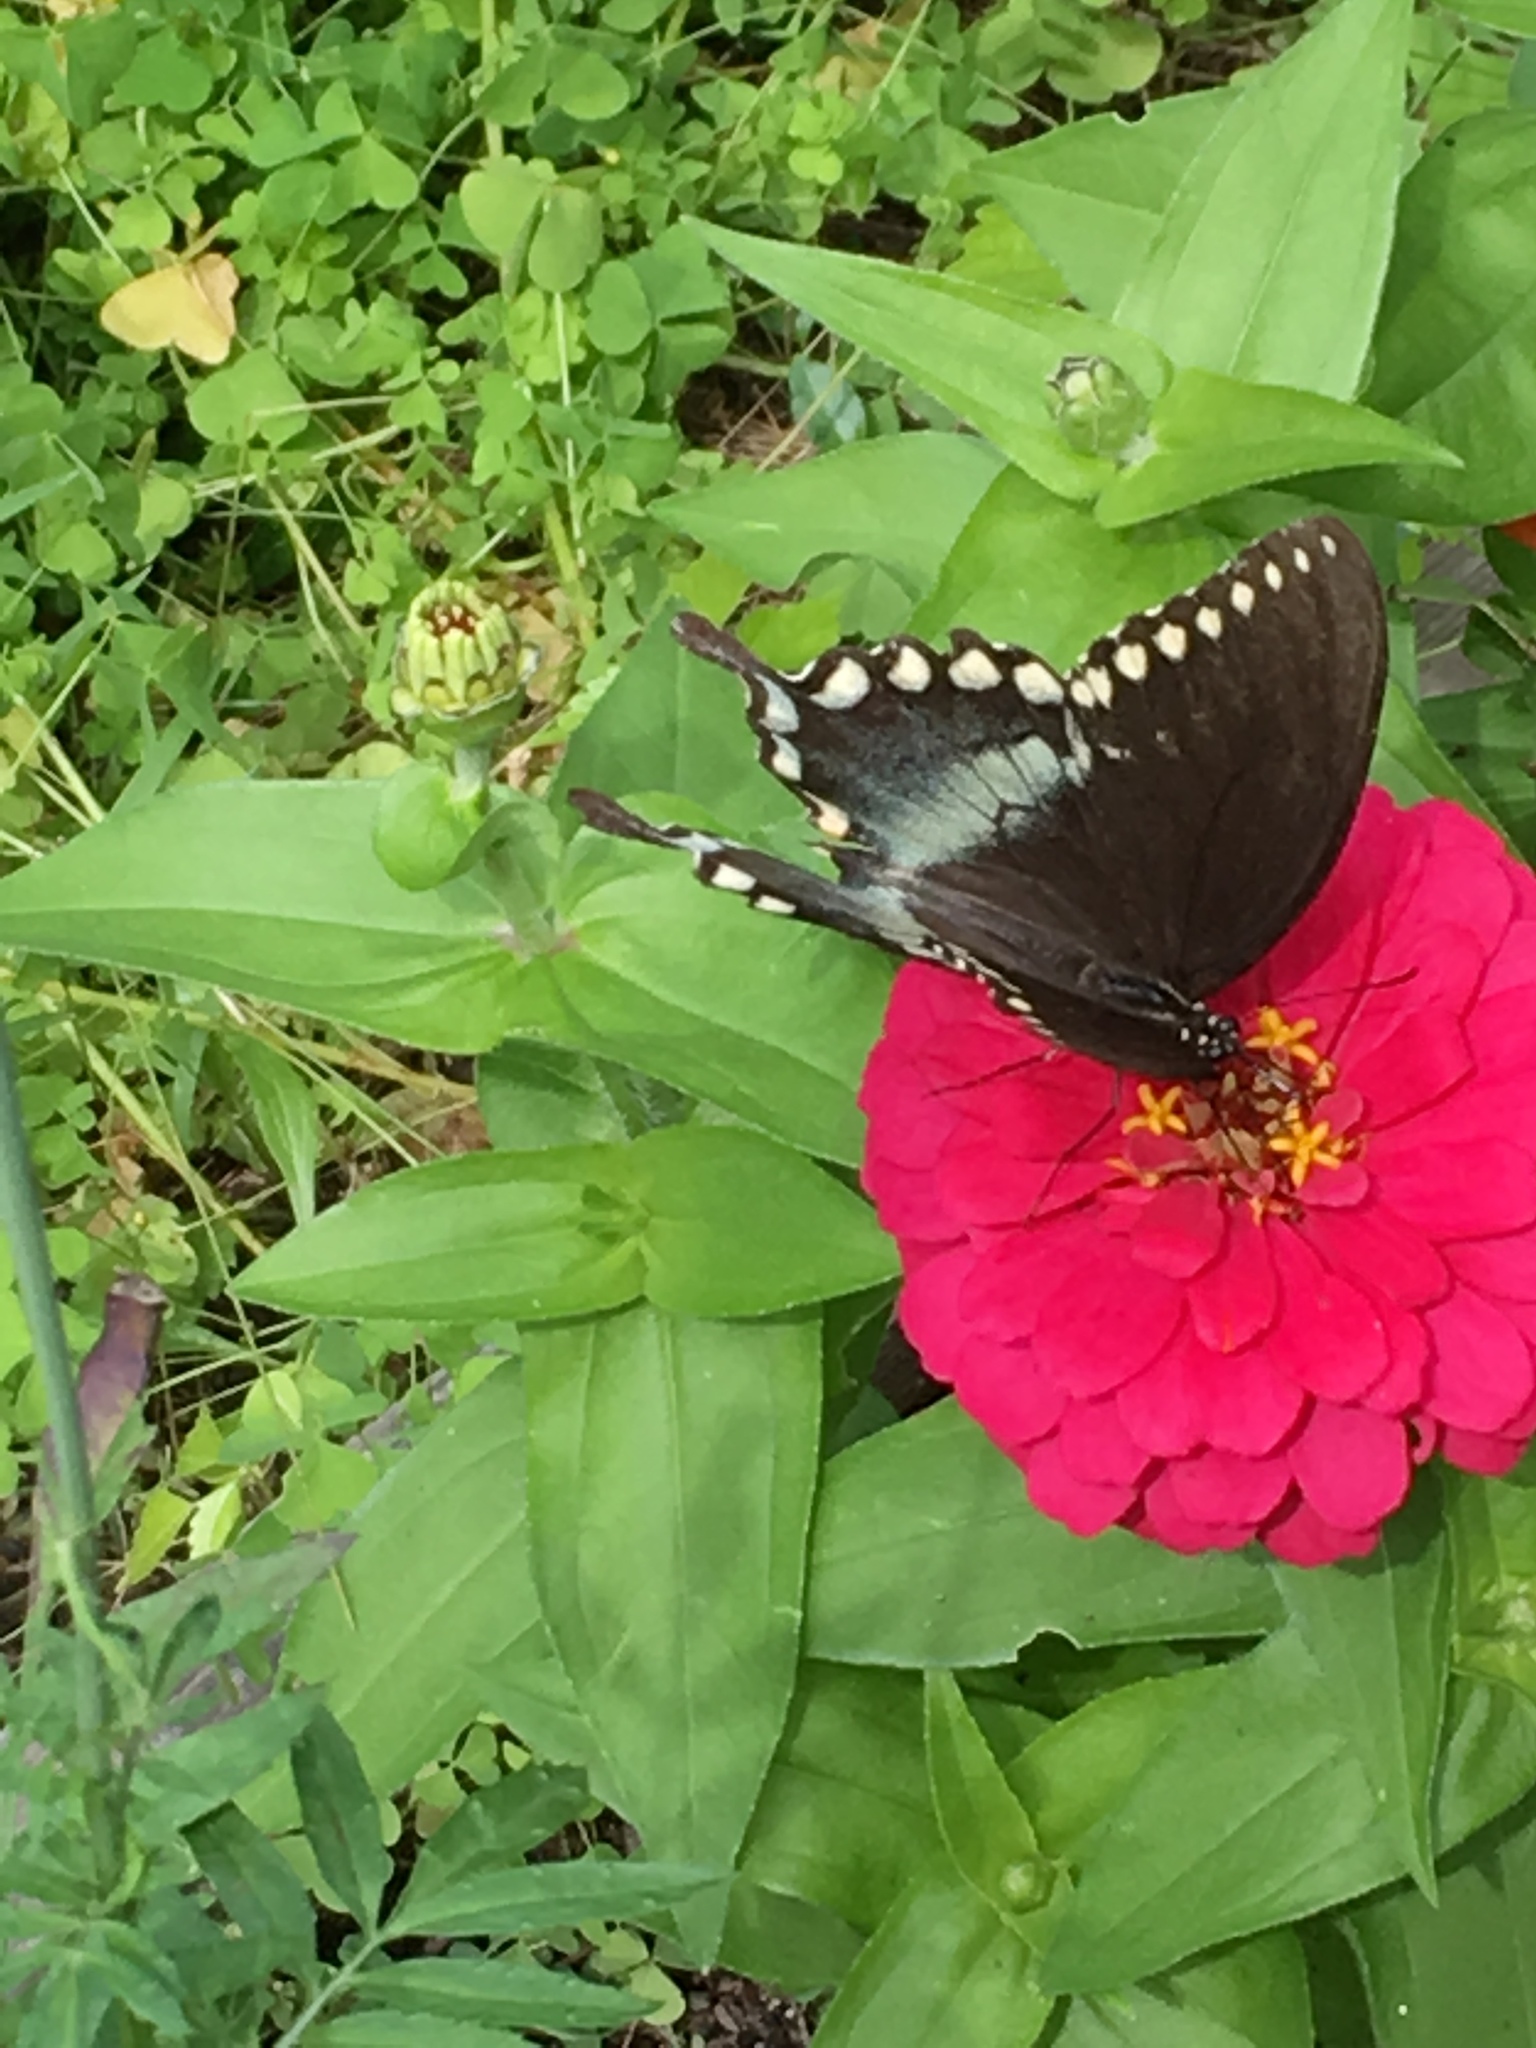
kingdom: Animalia
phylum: Arthropoda
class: Insecta
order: Lepidoptera
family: Papilionidae
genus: Papilio
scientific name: Papilio troilus
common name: Spicebush swallowtail
